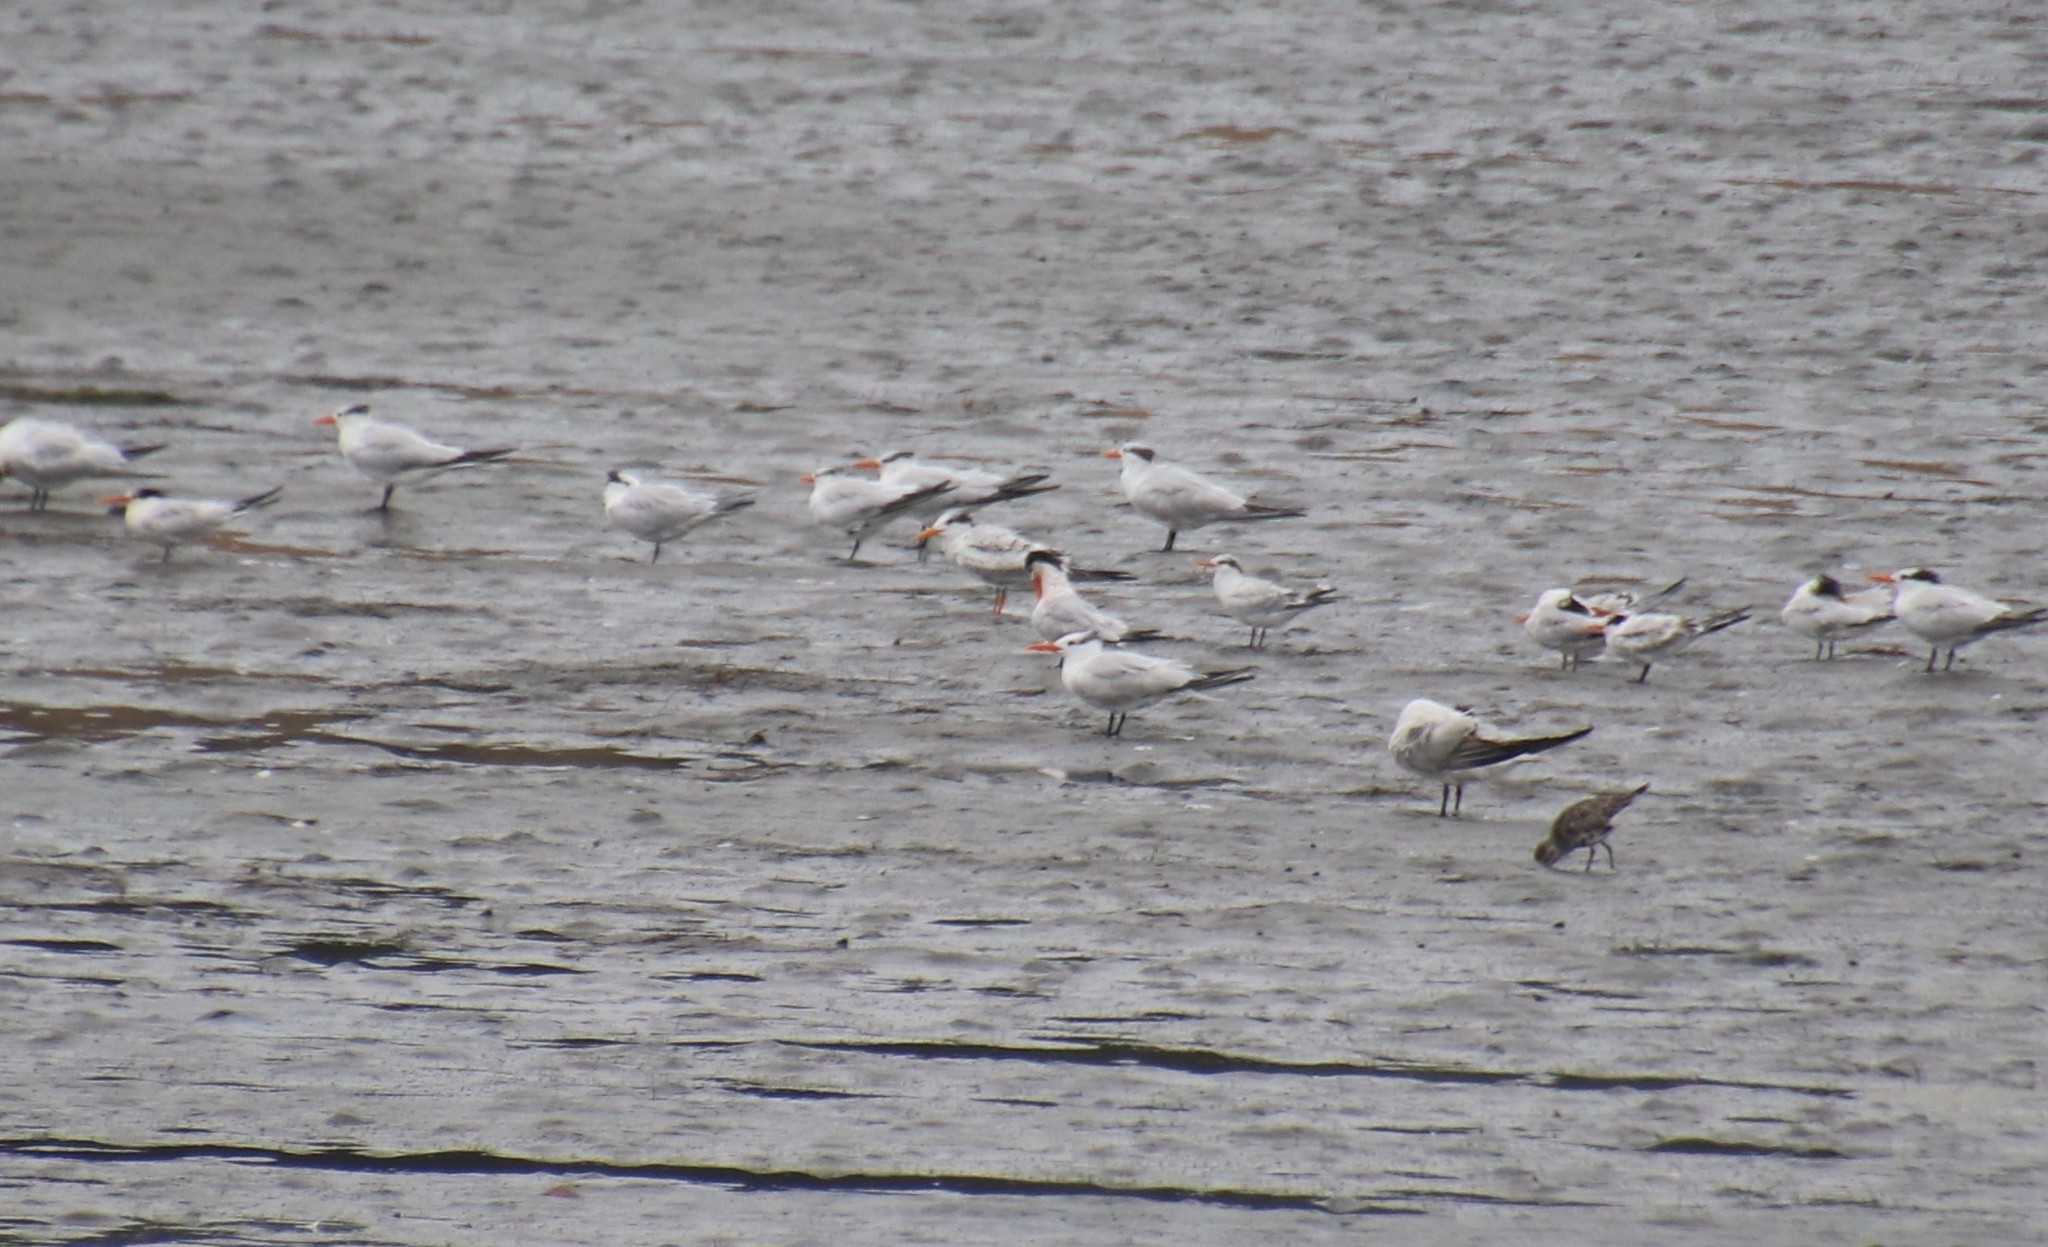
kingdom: Animalia
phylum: Chordata
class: Aves
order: Charadriiformes
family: Laridae
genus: Thalasseus
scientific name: Thalasseus maximus
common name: Royal tern
